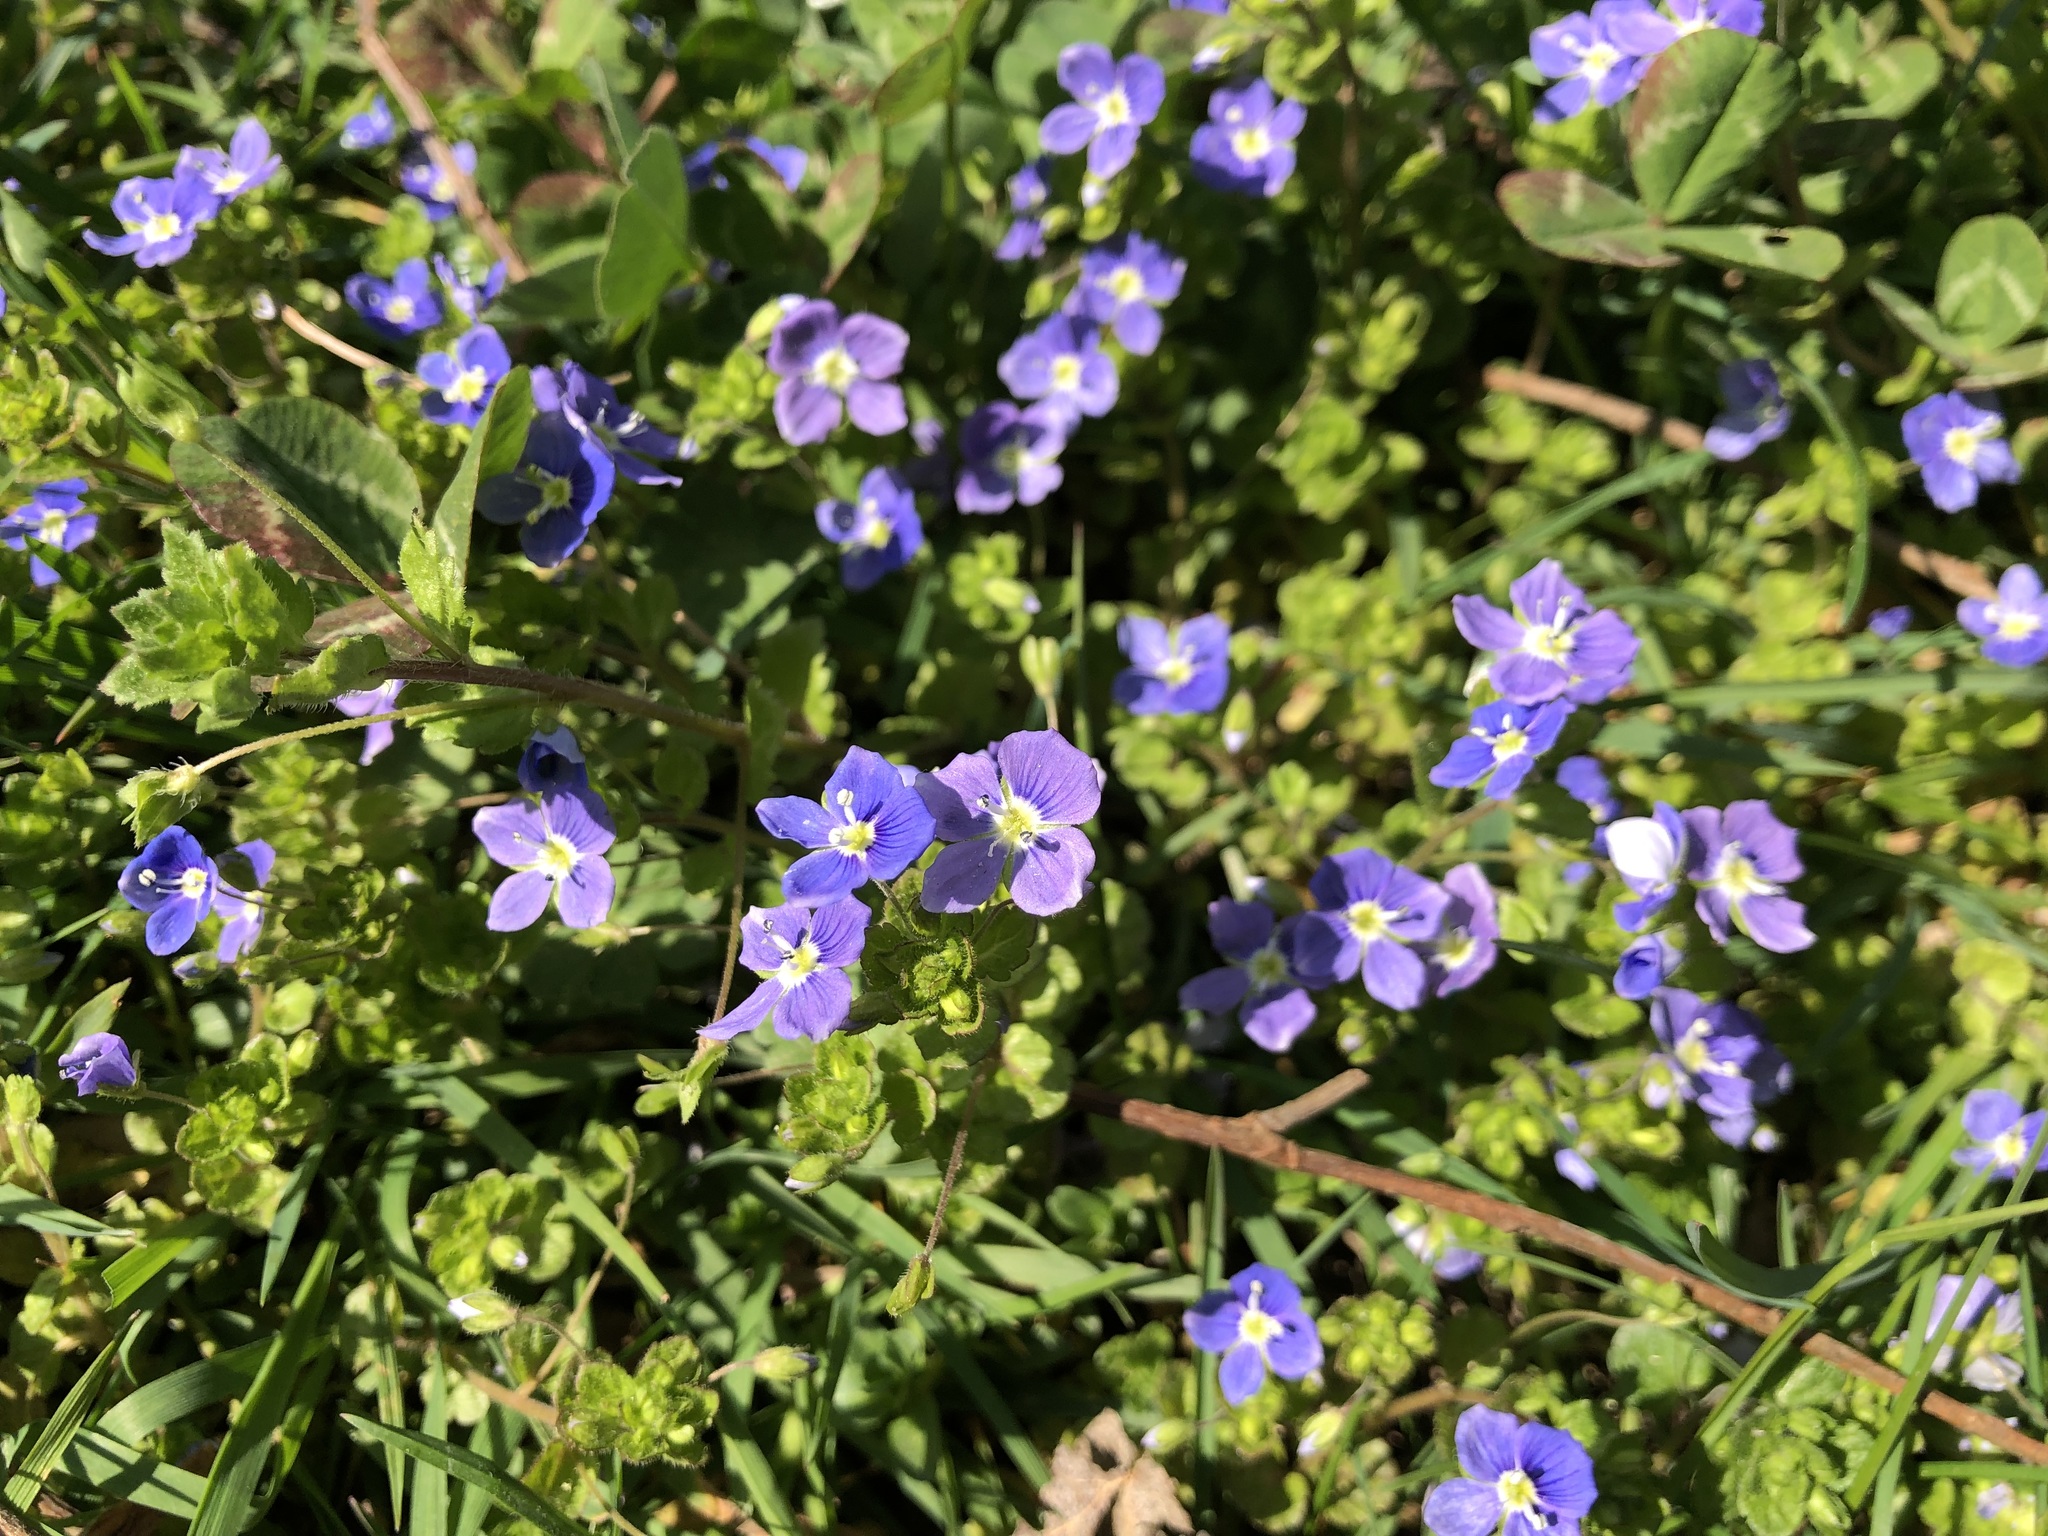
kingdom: Plantae
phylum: Tracheophyta
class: Magnoliopsida
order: Lamiales
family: Plantaginaceae
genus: Veronica
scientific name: Veronica filiformis
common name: Slender speedwell
